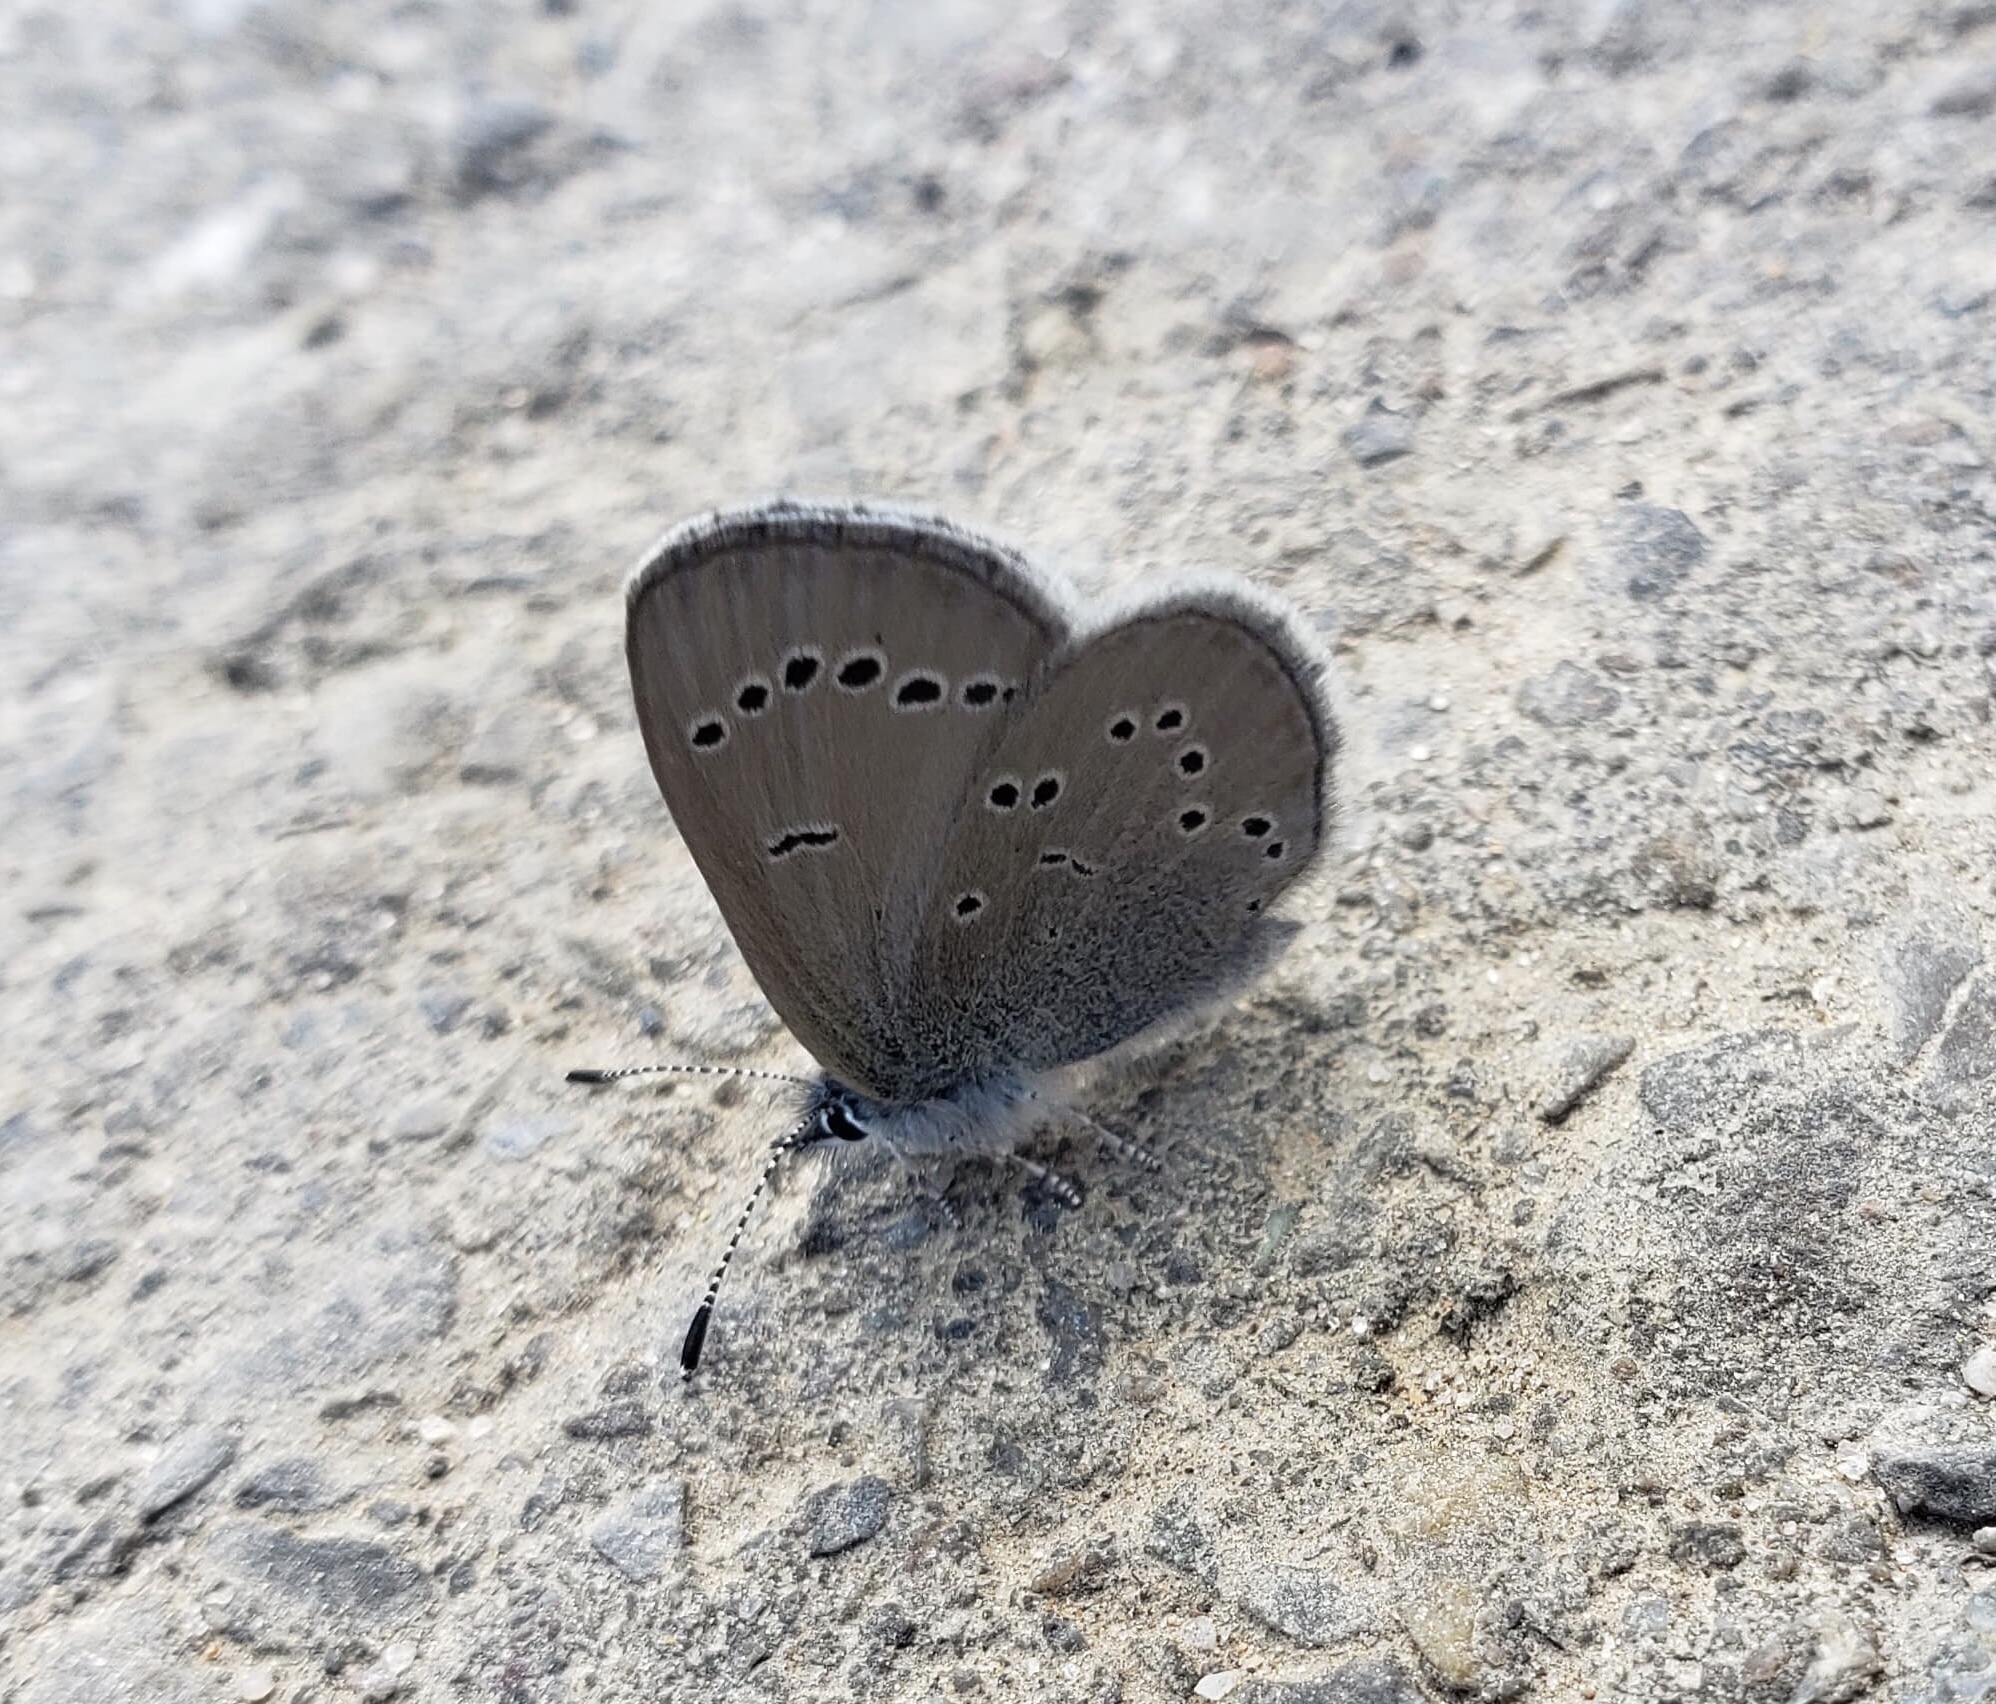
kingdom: Animalia
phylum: Arthropoda
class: Insecta
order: Lepidoptera
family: Lycaenidae
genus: Glaucopsyche
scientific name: Glaucopsyche lygdamus
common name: Silvery blue
